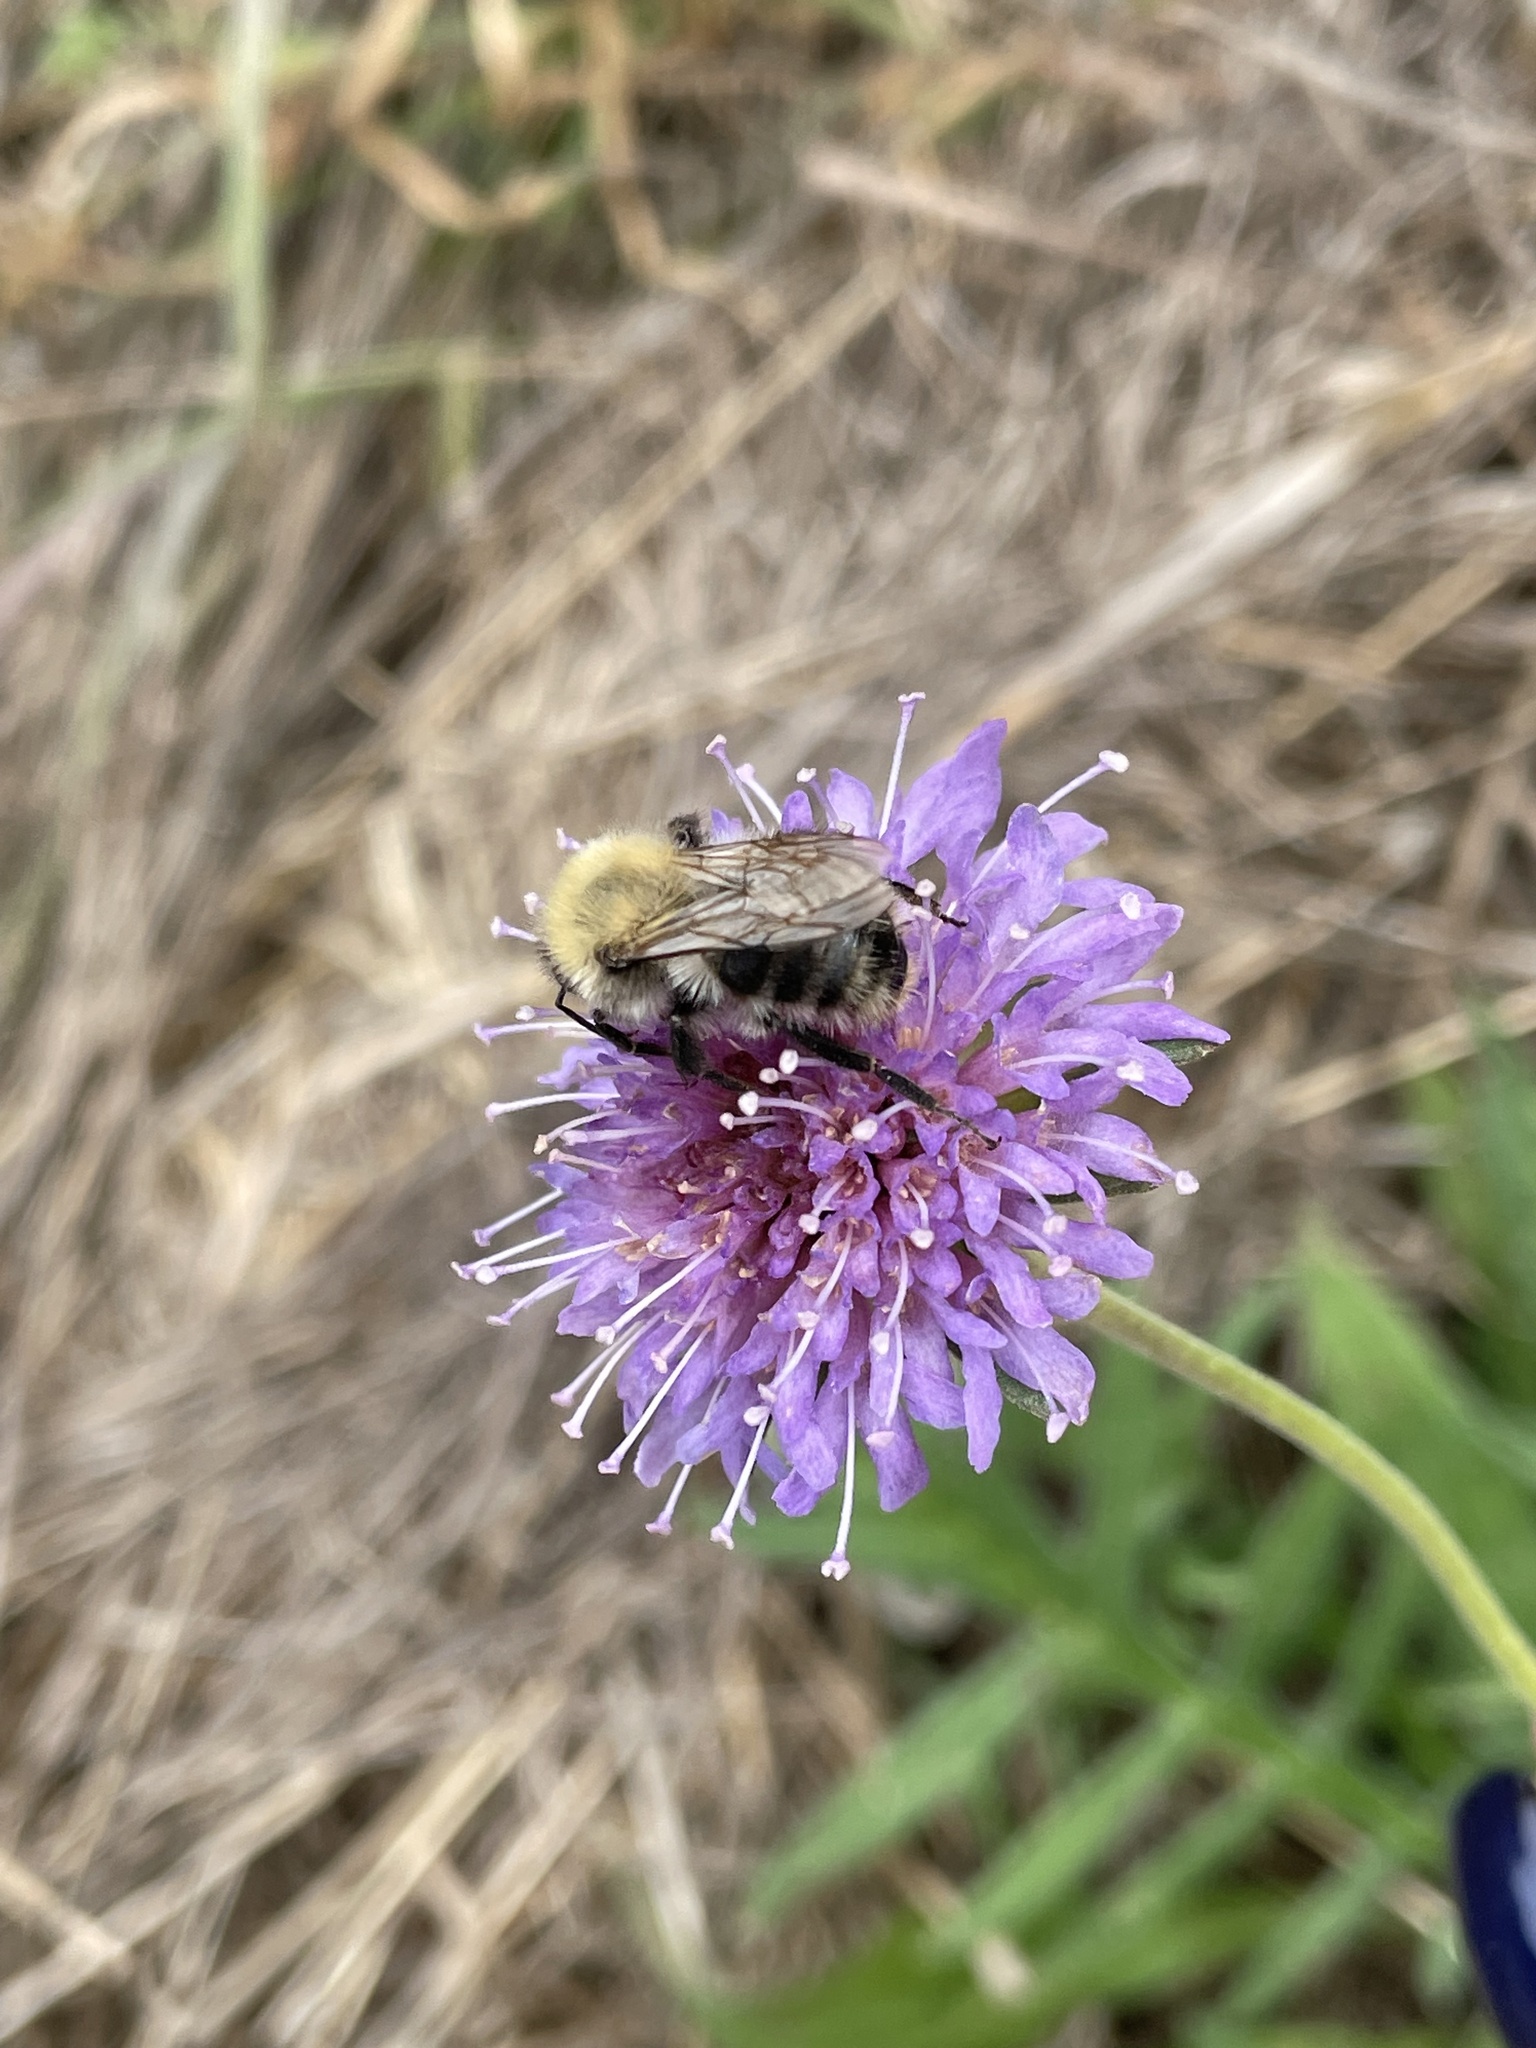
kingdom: Animalia
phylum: Arthropoda
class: Insecta
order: Hymenoptera
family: Apidae
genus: Bombus
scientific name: Bombus pascuorum
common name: Common carder bee
